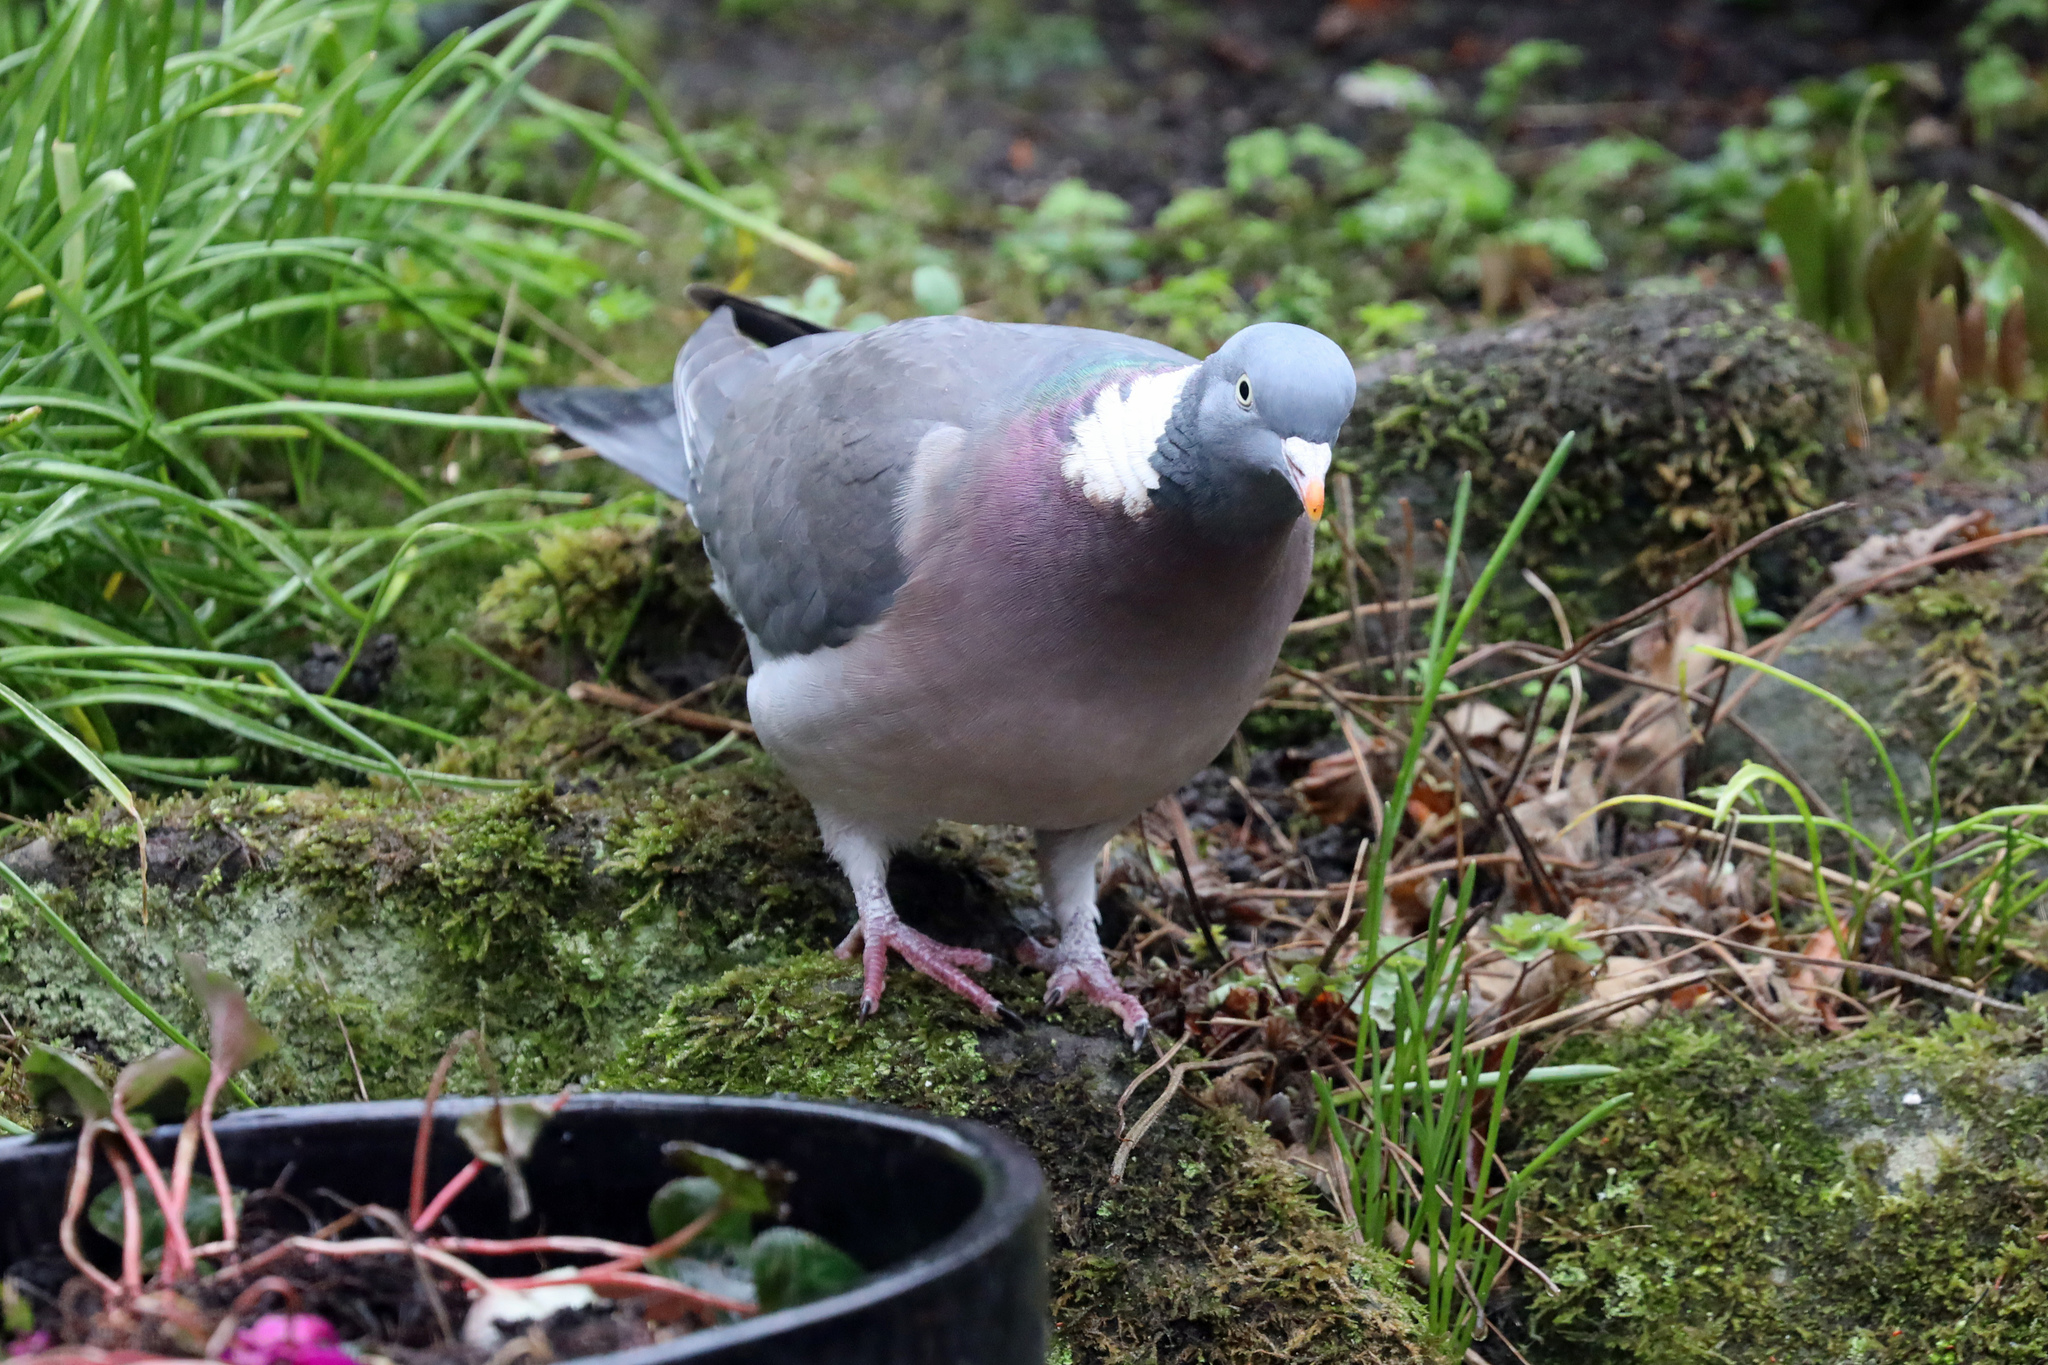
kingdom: Animalia
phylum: Chordata
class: Aves
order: Columbiformes
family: Columbidae
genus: Columba
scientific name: Columba palumbus
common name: Common wood pigeon
